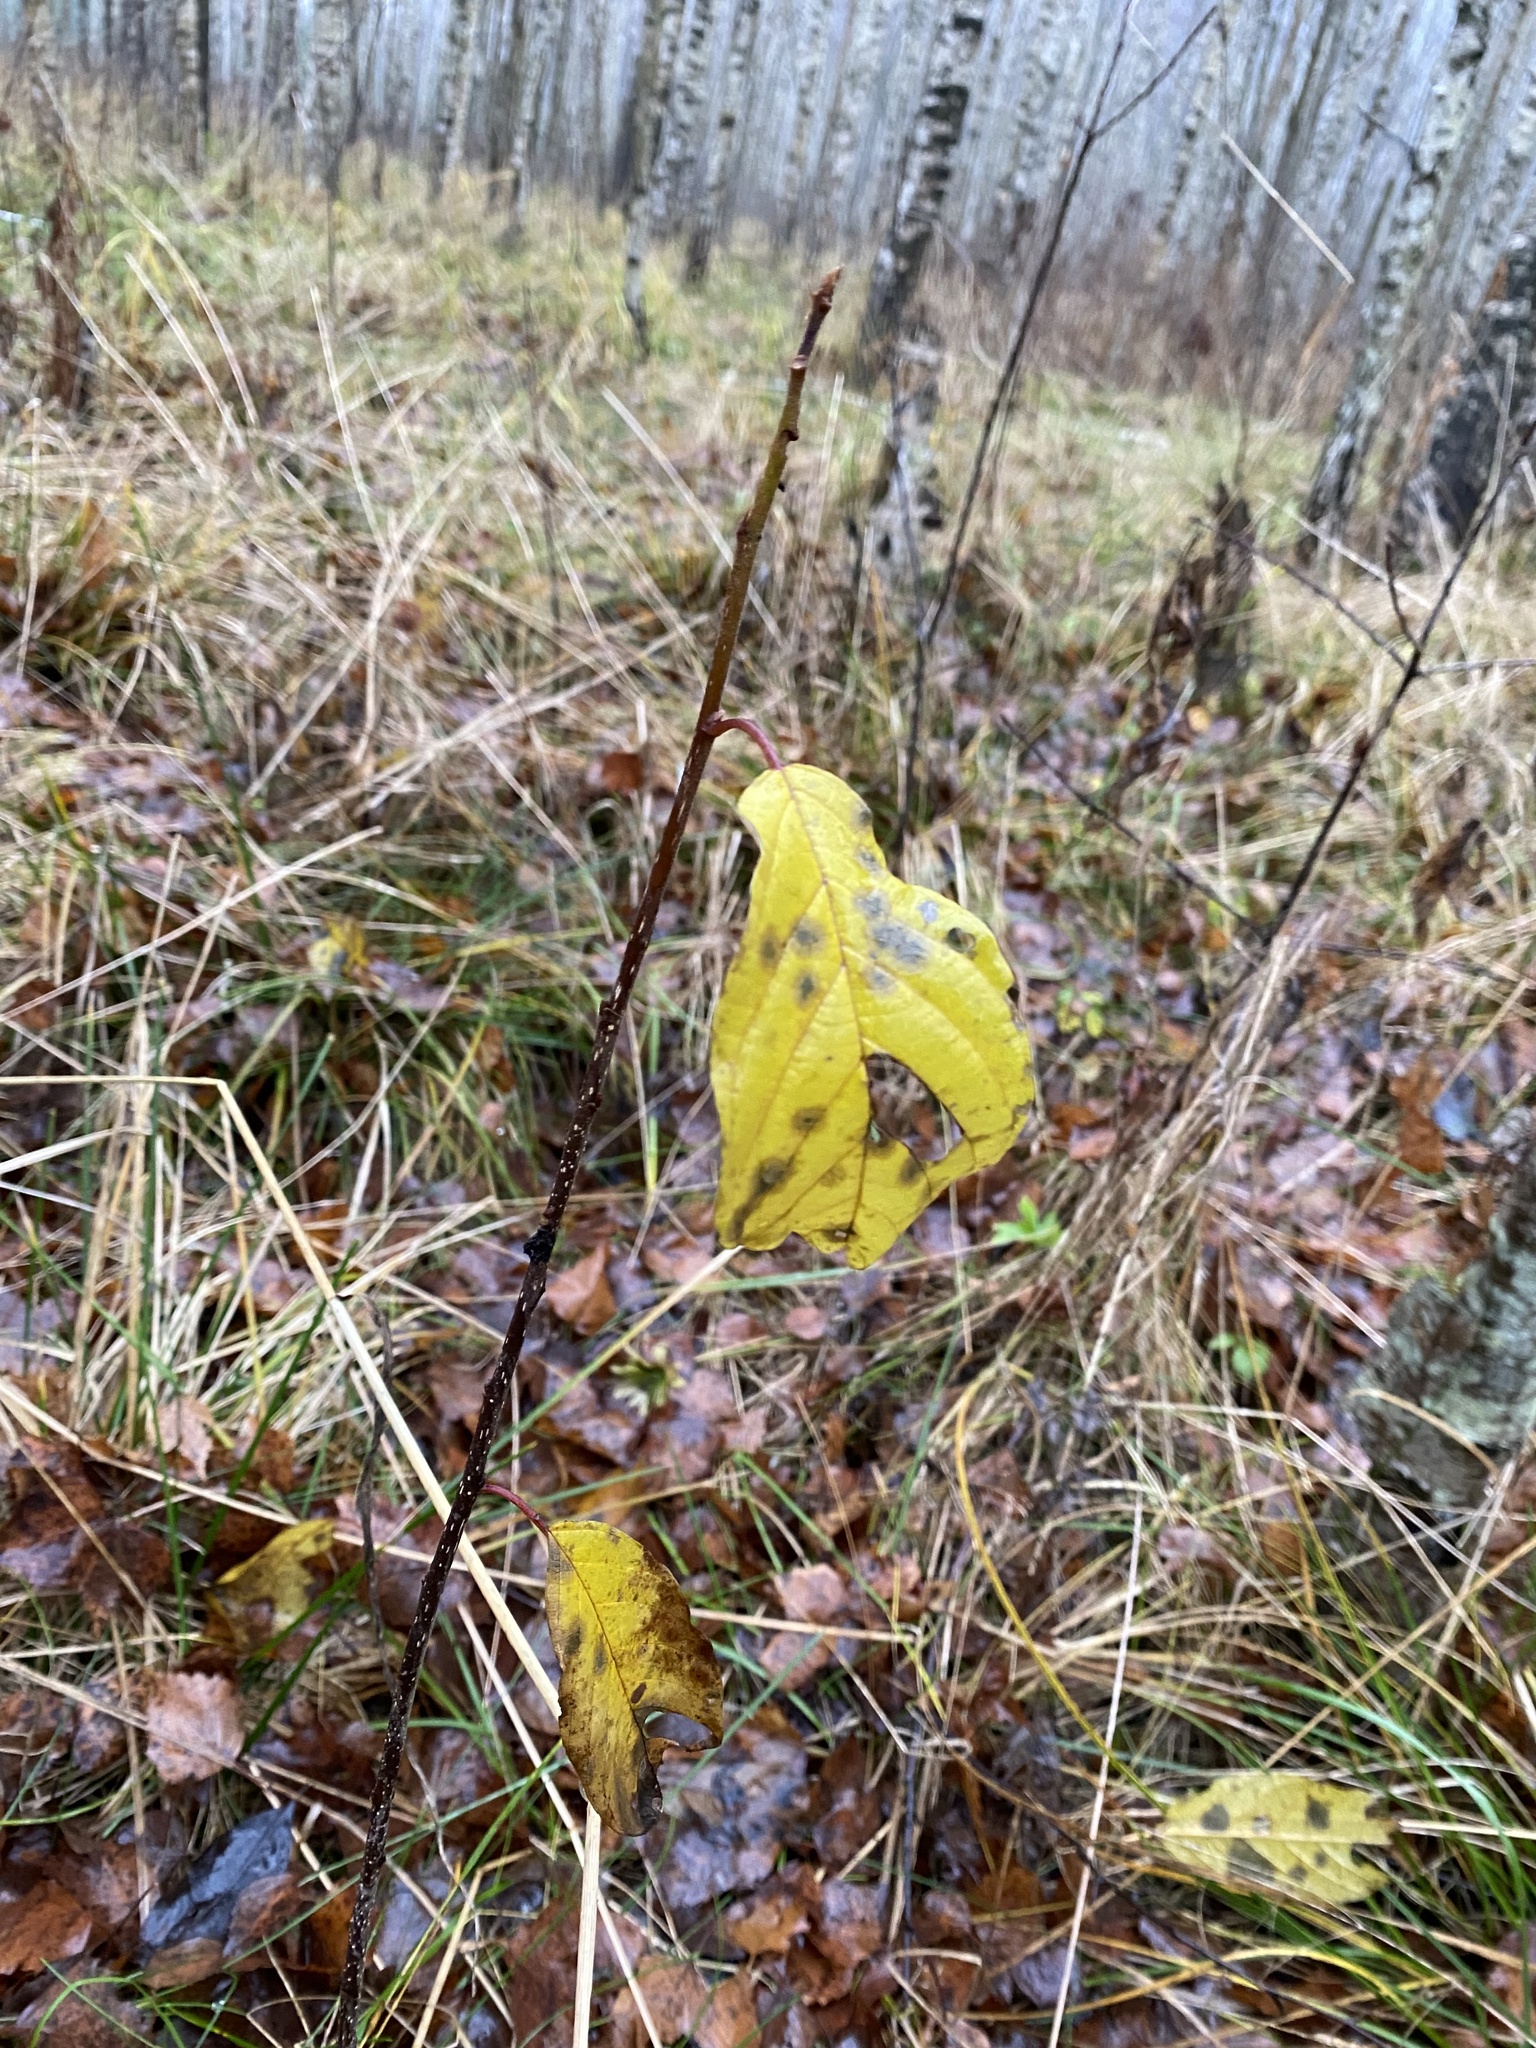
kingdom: Plantae
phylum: Tracheophyta
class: Magnoliopsida
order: Rosales
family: Rhamnaceae
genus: Frangula
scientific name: Frangula alnus
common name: Alder buckthorn
